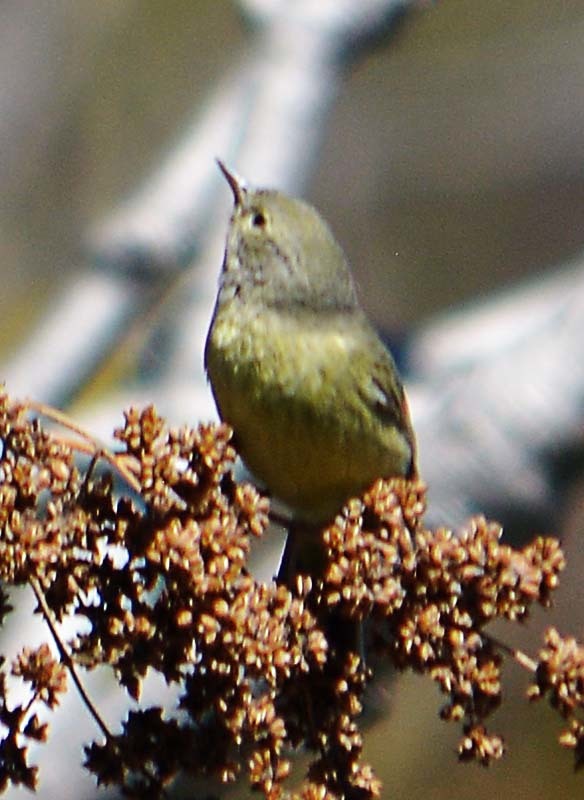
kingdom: Animalia
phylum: Chordata
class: Aves
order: Passeriformes
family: Parulidae
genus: Leiothlypis
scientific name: Leiothlypis celata
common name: Orange-crowned warbler
